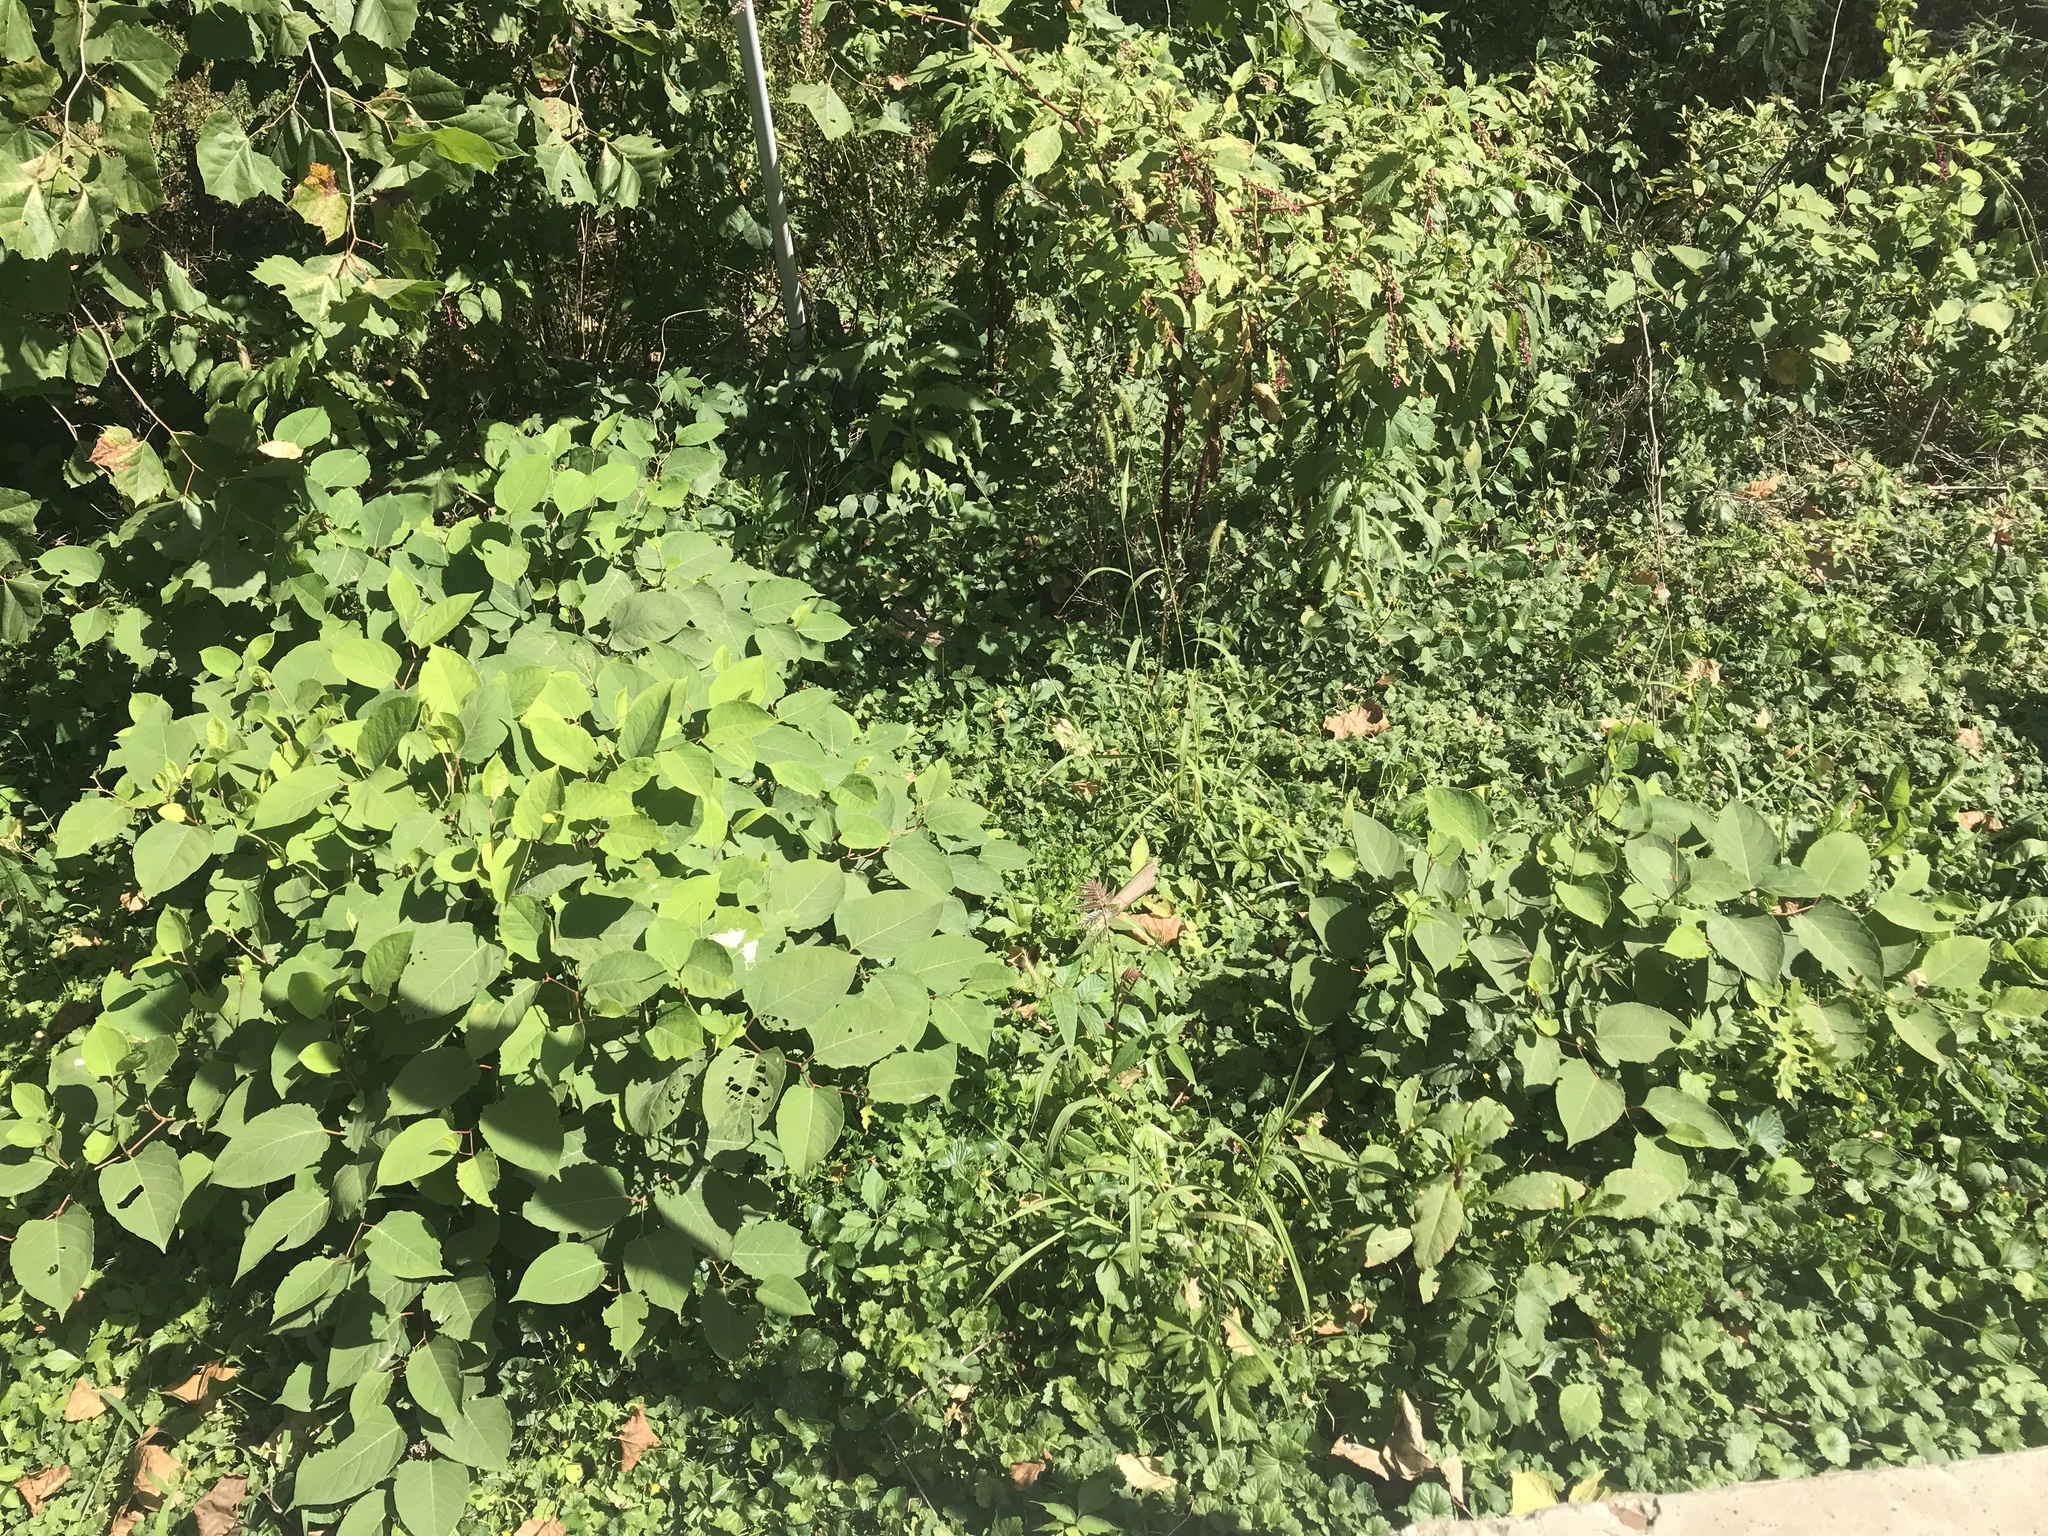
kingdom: Plantae
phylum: Tracheophyta
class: Magnoliopsida
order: Caryophyllales
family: Polygonaceae
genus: Reynoutria
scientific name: Reynoutria japonica
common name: Japanese knotweed
